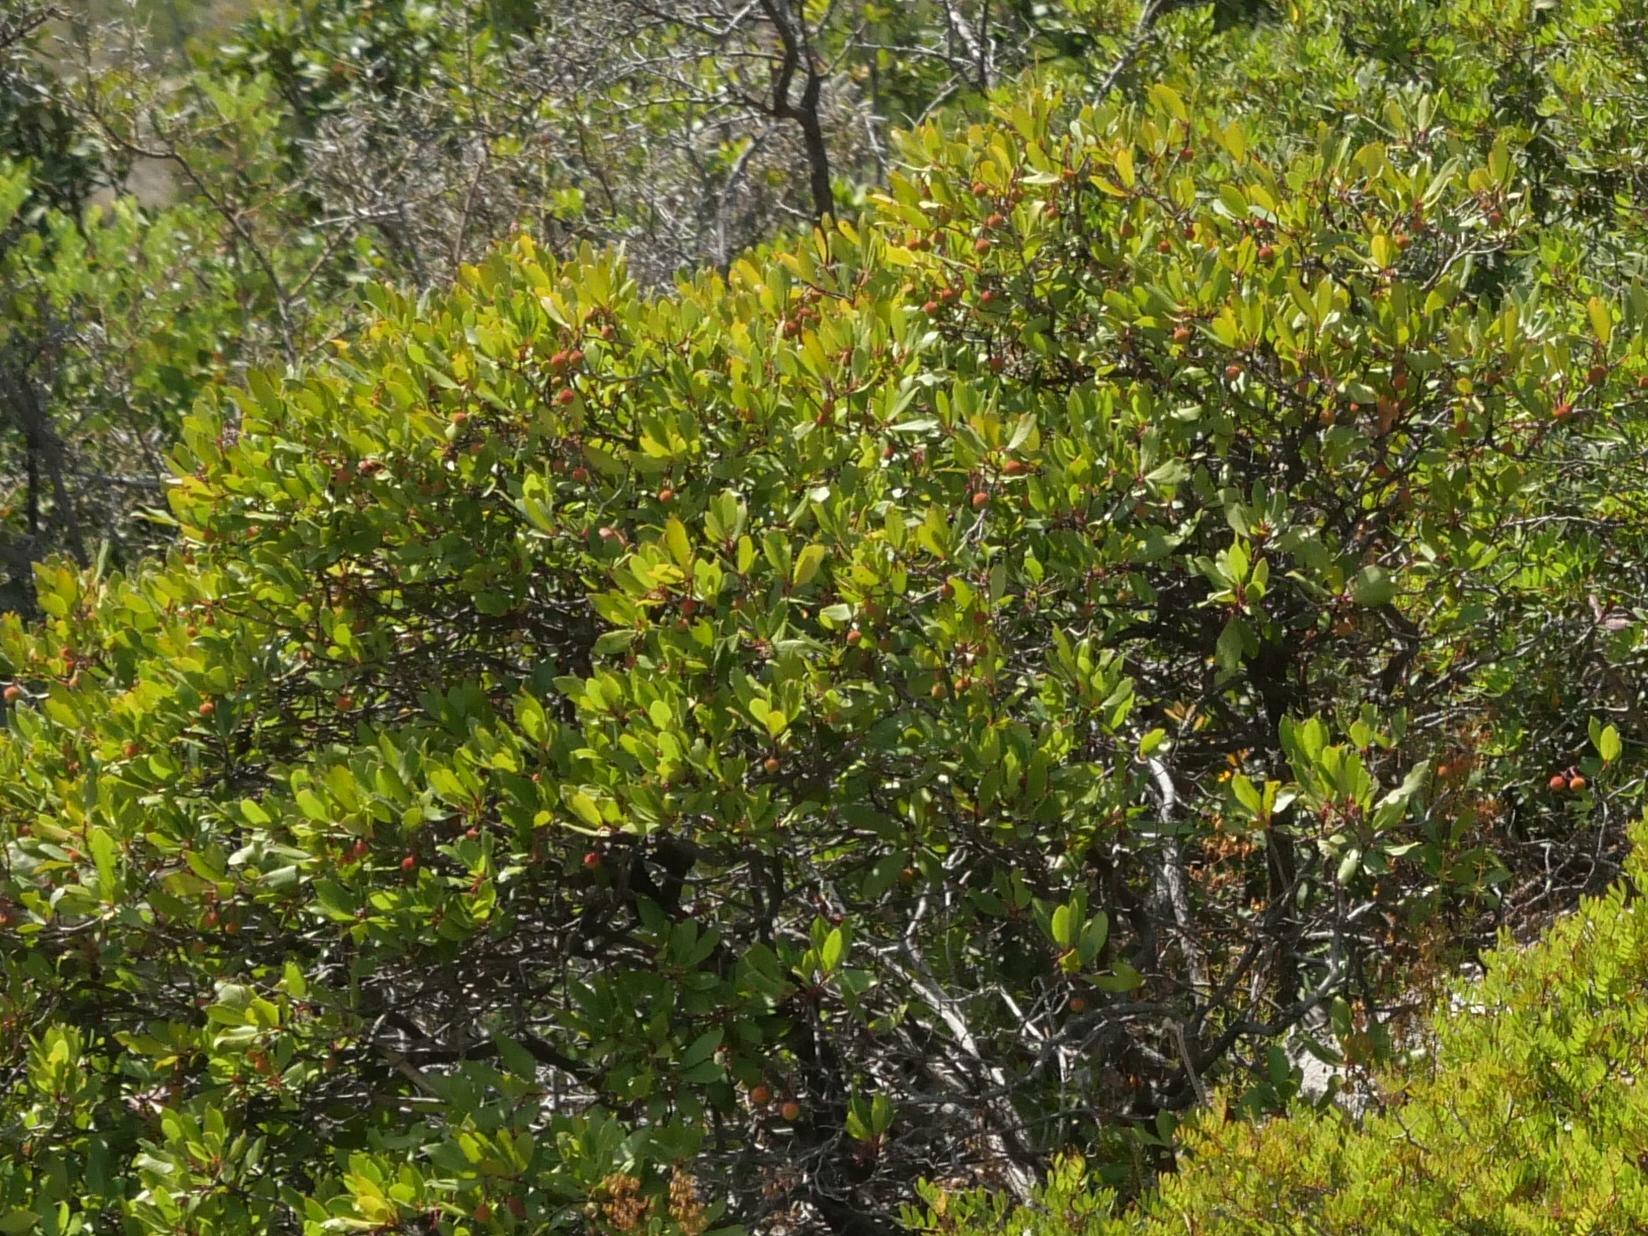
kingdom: Plantae
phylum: Tracheophyta
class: Magnoliopsida
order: Sapindales
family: Anacardiaceae
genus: Pistacia
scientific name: Pistacia lentiscus
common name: Lentisk
